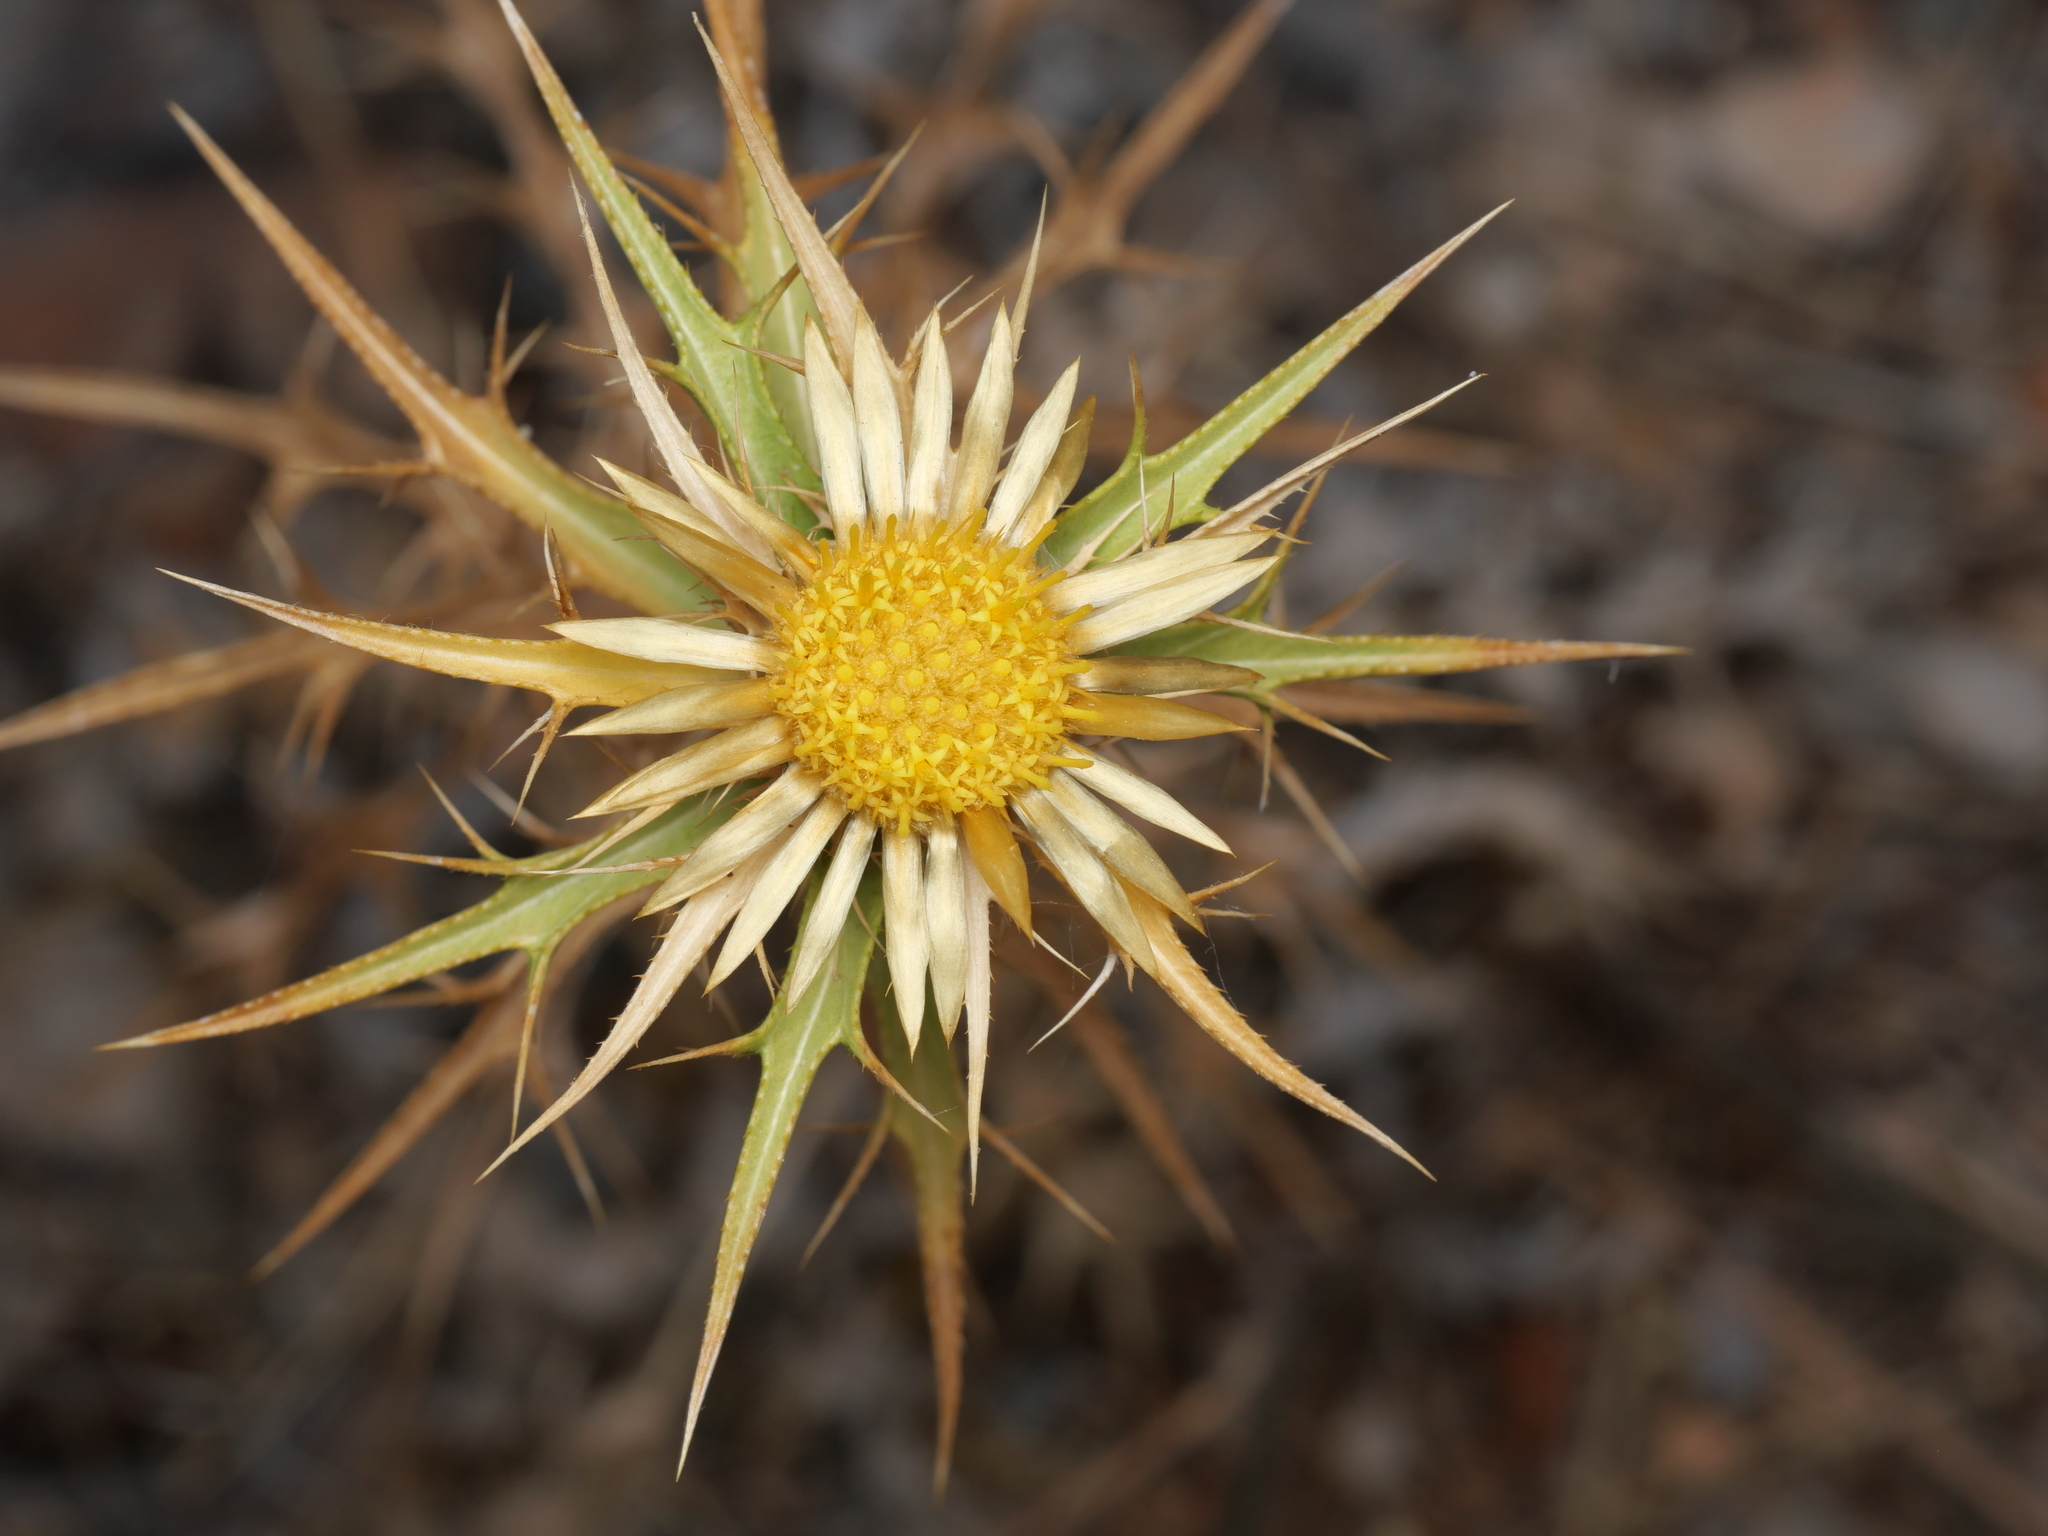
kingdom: Plantae
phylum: Tracheophyta
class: Magnoliopsida
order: Asterales
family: Asteraceae
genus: Carlina
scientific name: Carlina graeca
